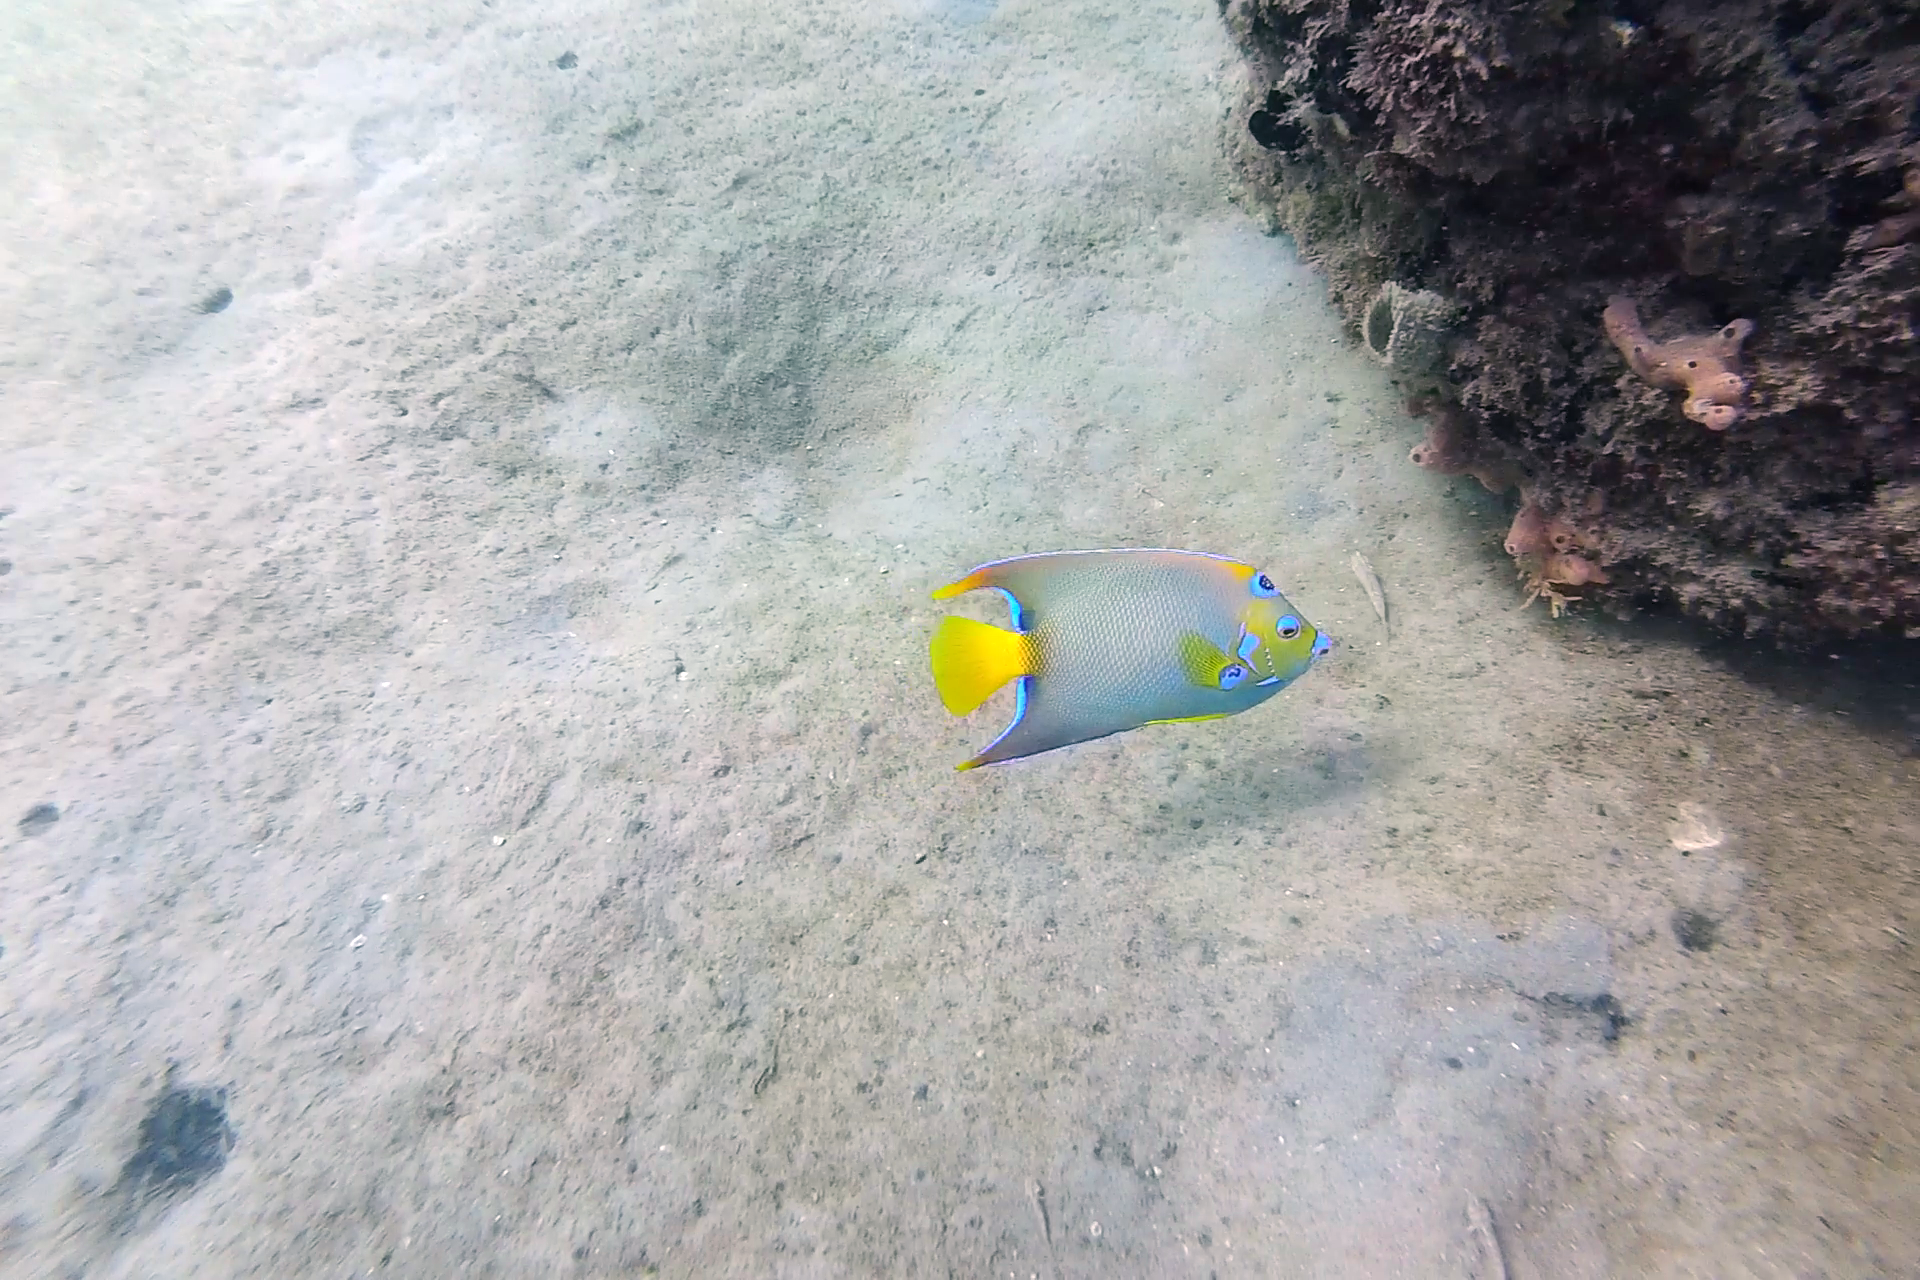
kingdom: Animalia
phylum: Chordata
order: Perciformes
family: Pomacanthidae
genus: Holacanthus
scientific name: Holacanthus ciliaris
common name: Queen angelfish
